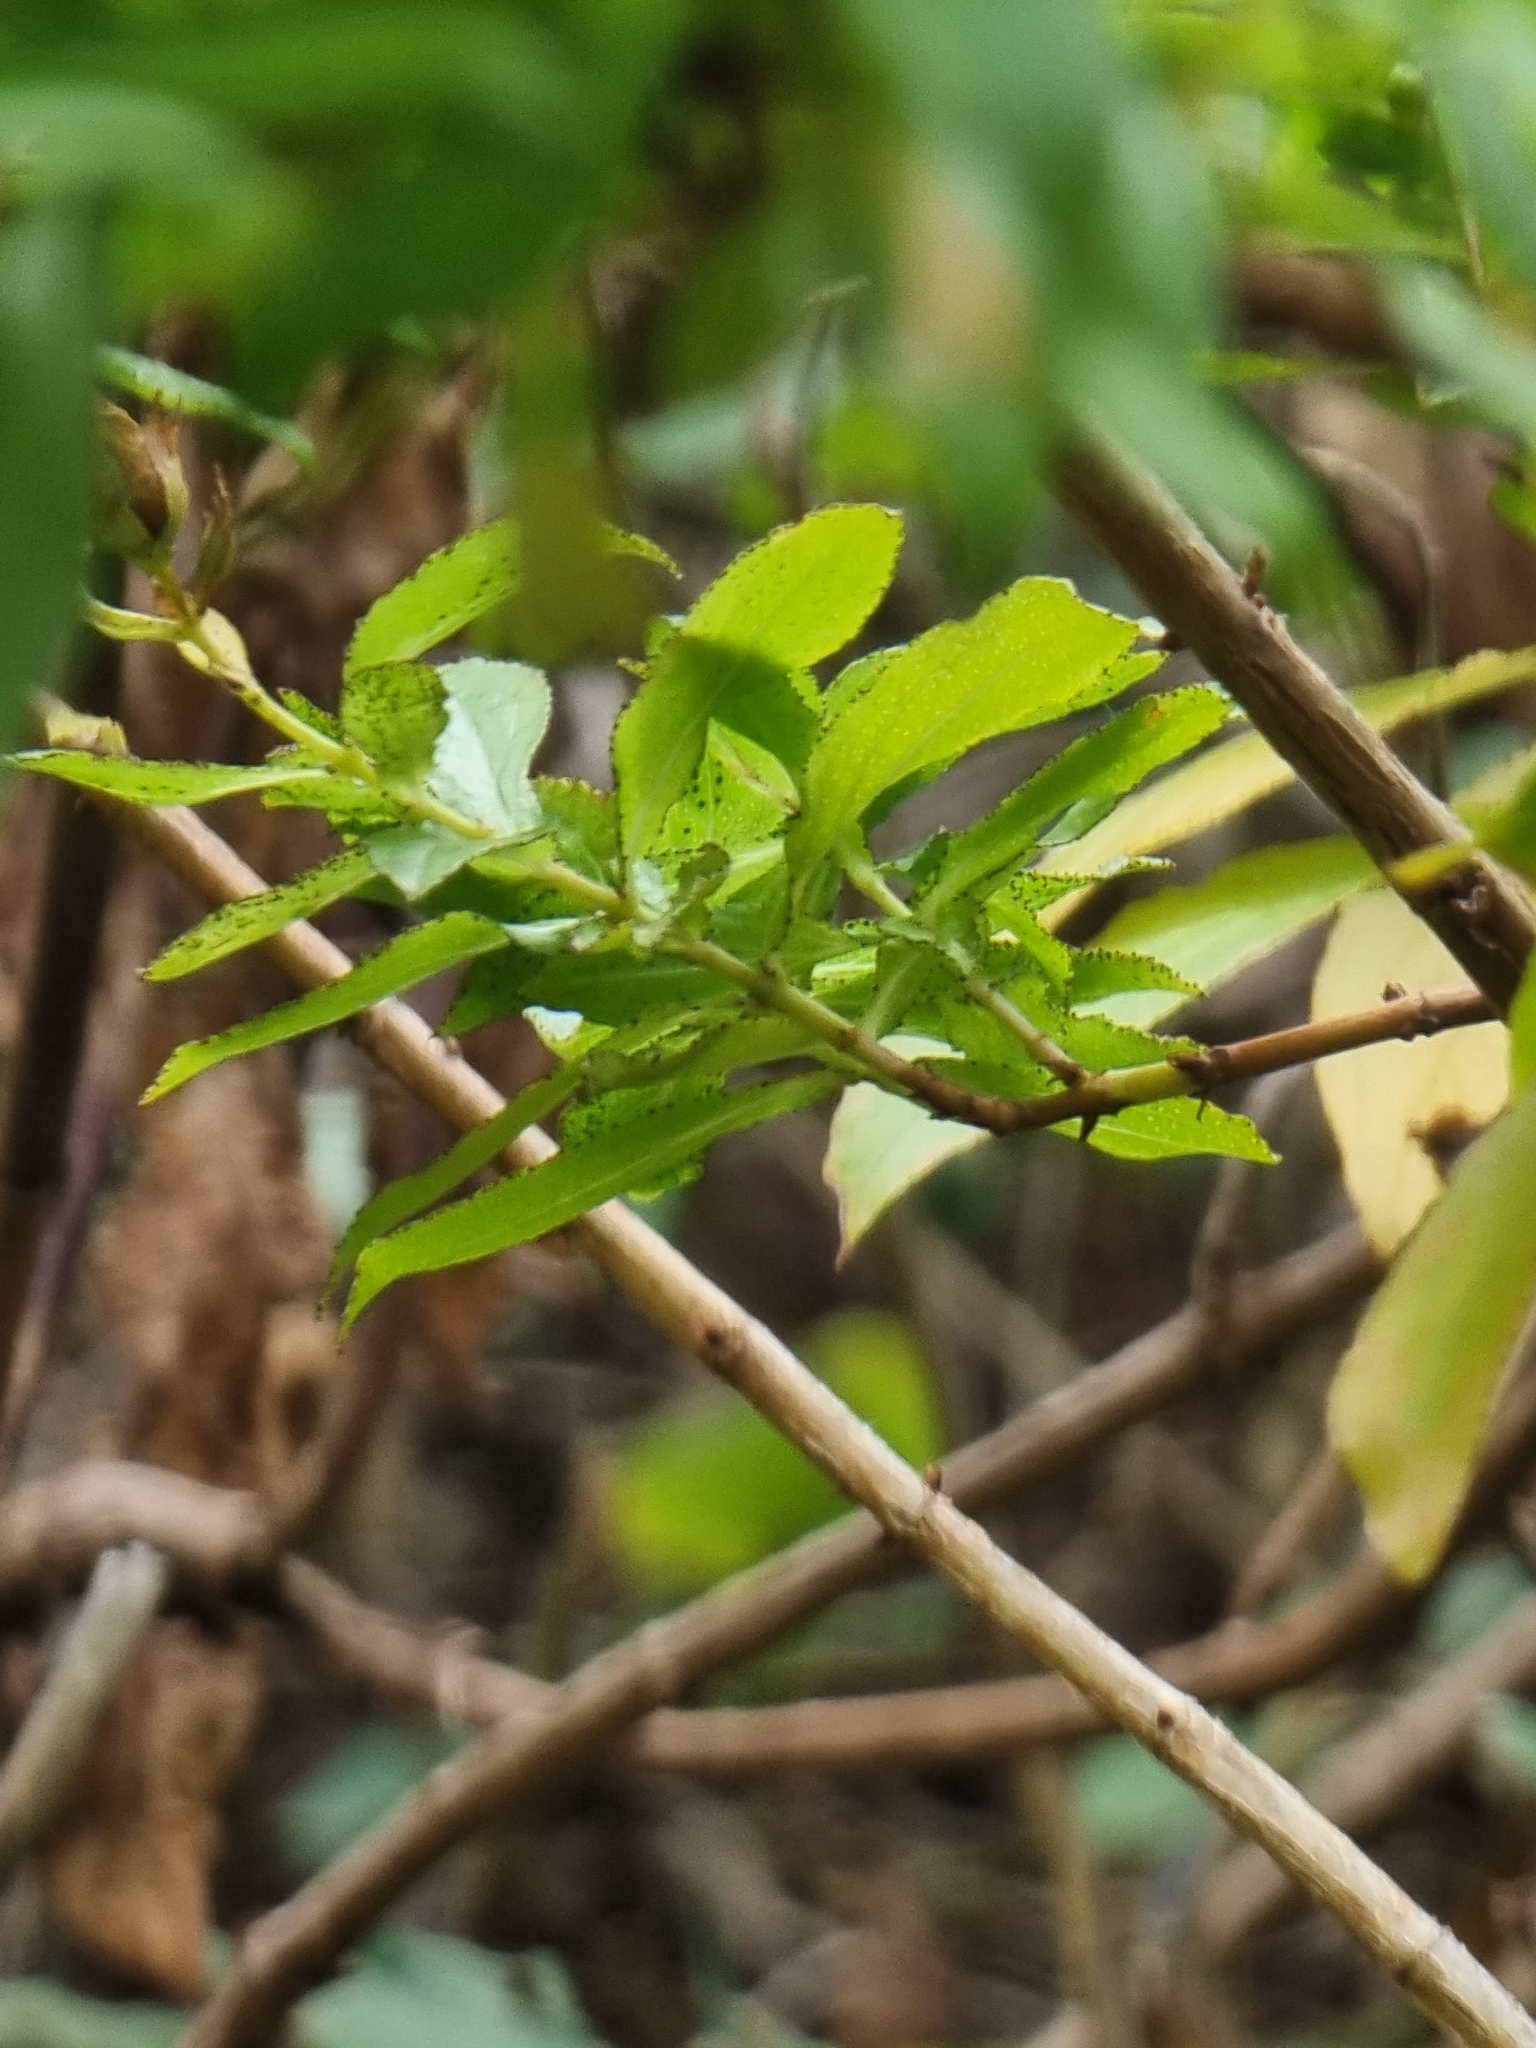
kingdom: Plantae
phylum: Tracheophyta
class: Magnoliopsida
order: Malpighiales
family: Hypericaceae
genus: Hypericum
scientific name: Hypericum glandulosum
